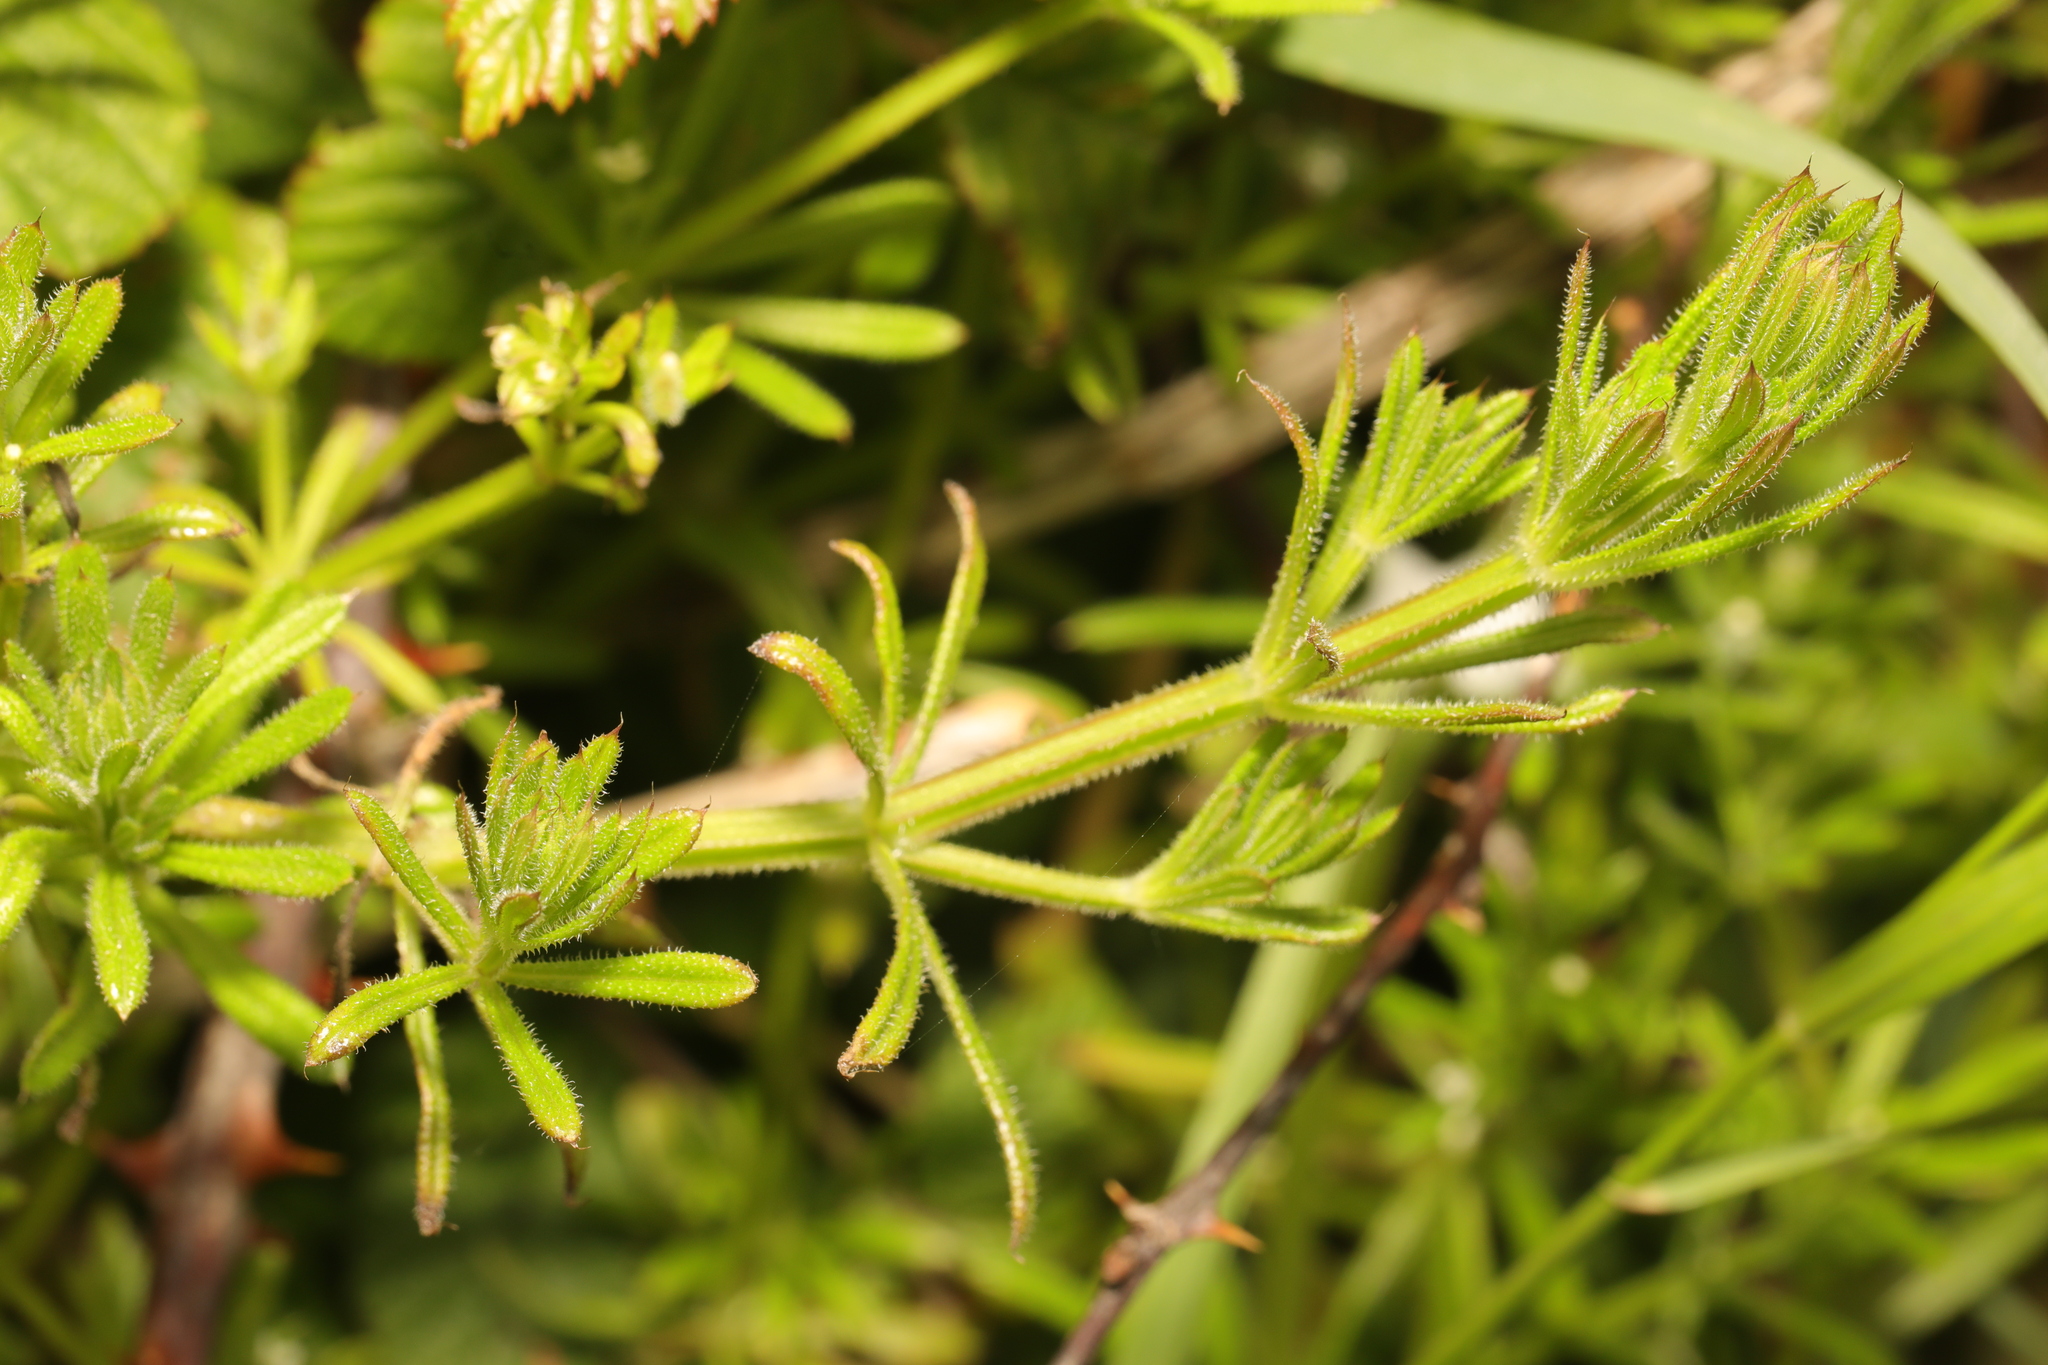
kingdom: Plantae
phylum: Tracheophyta
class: Magnoliopsida
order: Gentianales
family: Rubiaceae
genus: Galium
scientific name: Galium aparine
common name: Cleavers
